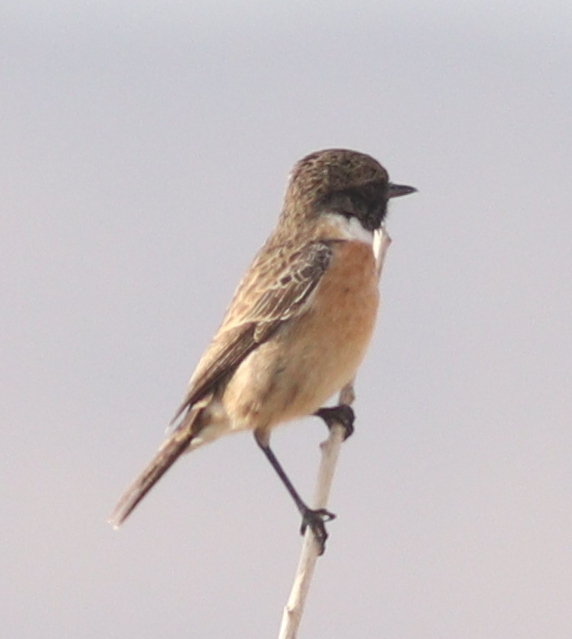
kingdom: Animalia
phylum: Chordata
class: Aves
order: Passeriformes
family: Muscicapidae
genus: Saxicola
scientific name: Saxicola rubicola
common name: European stonechat
